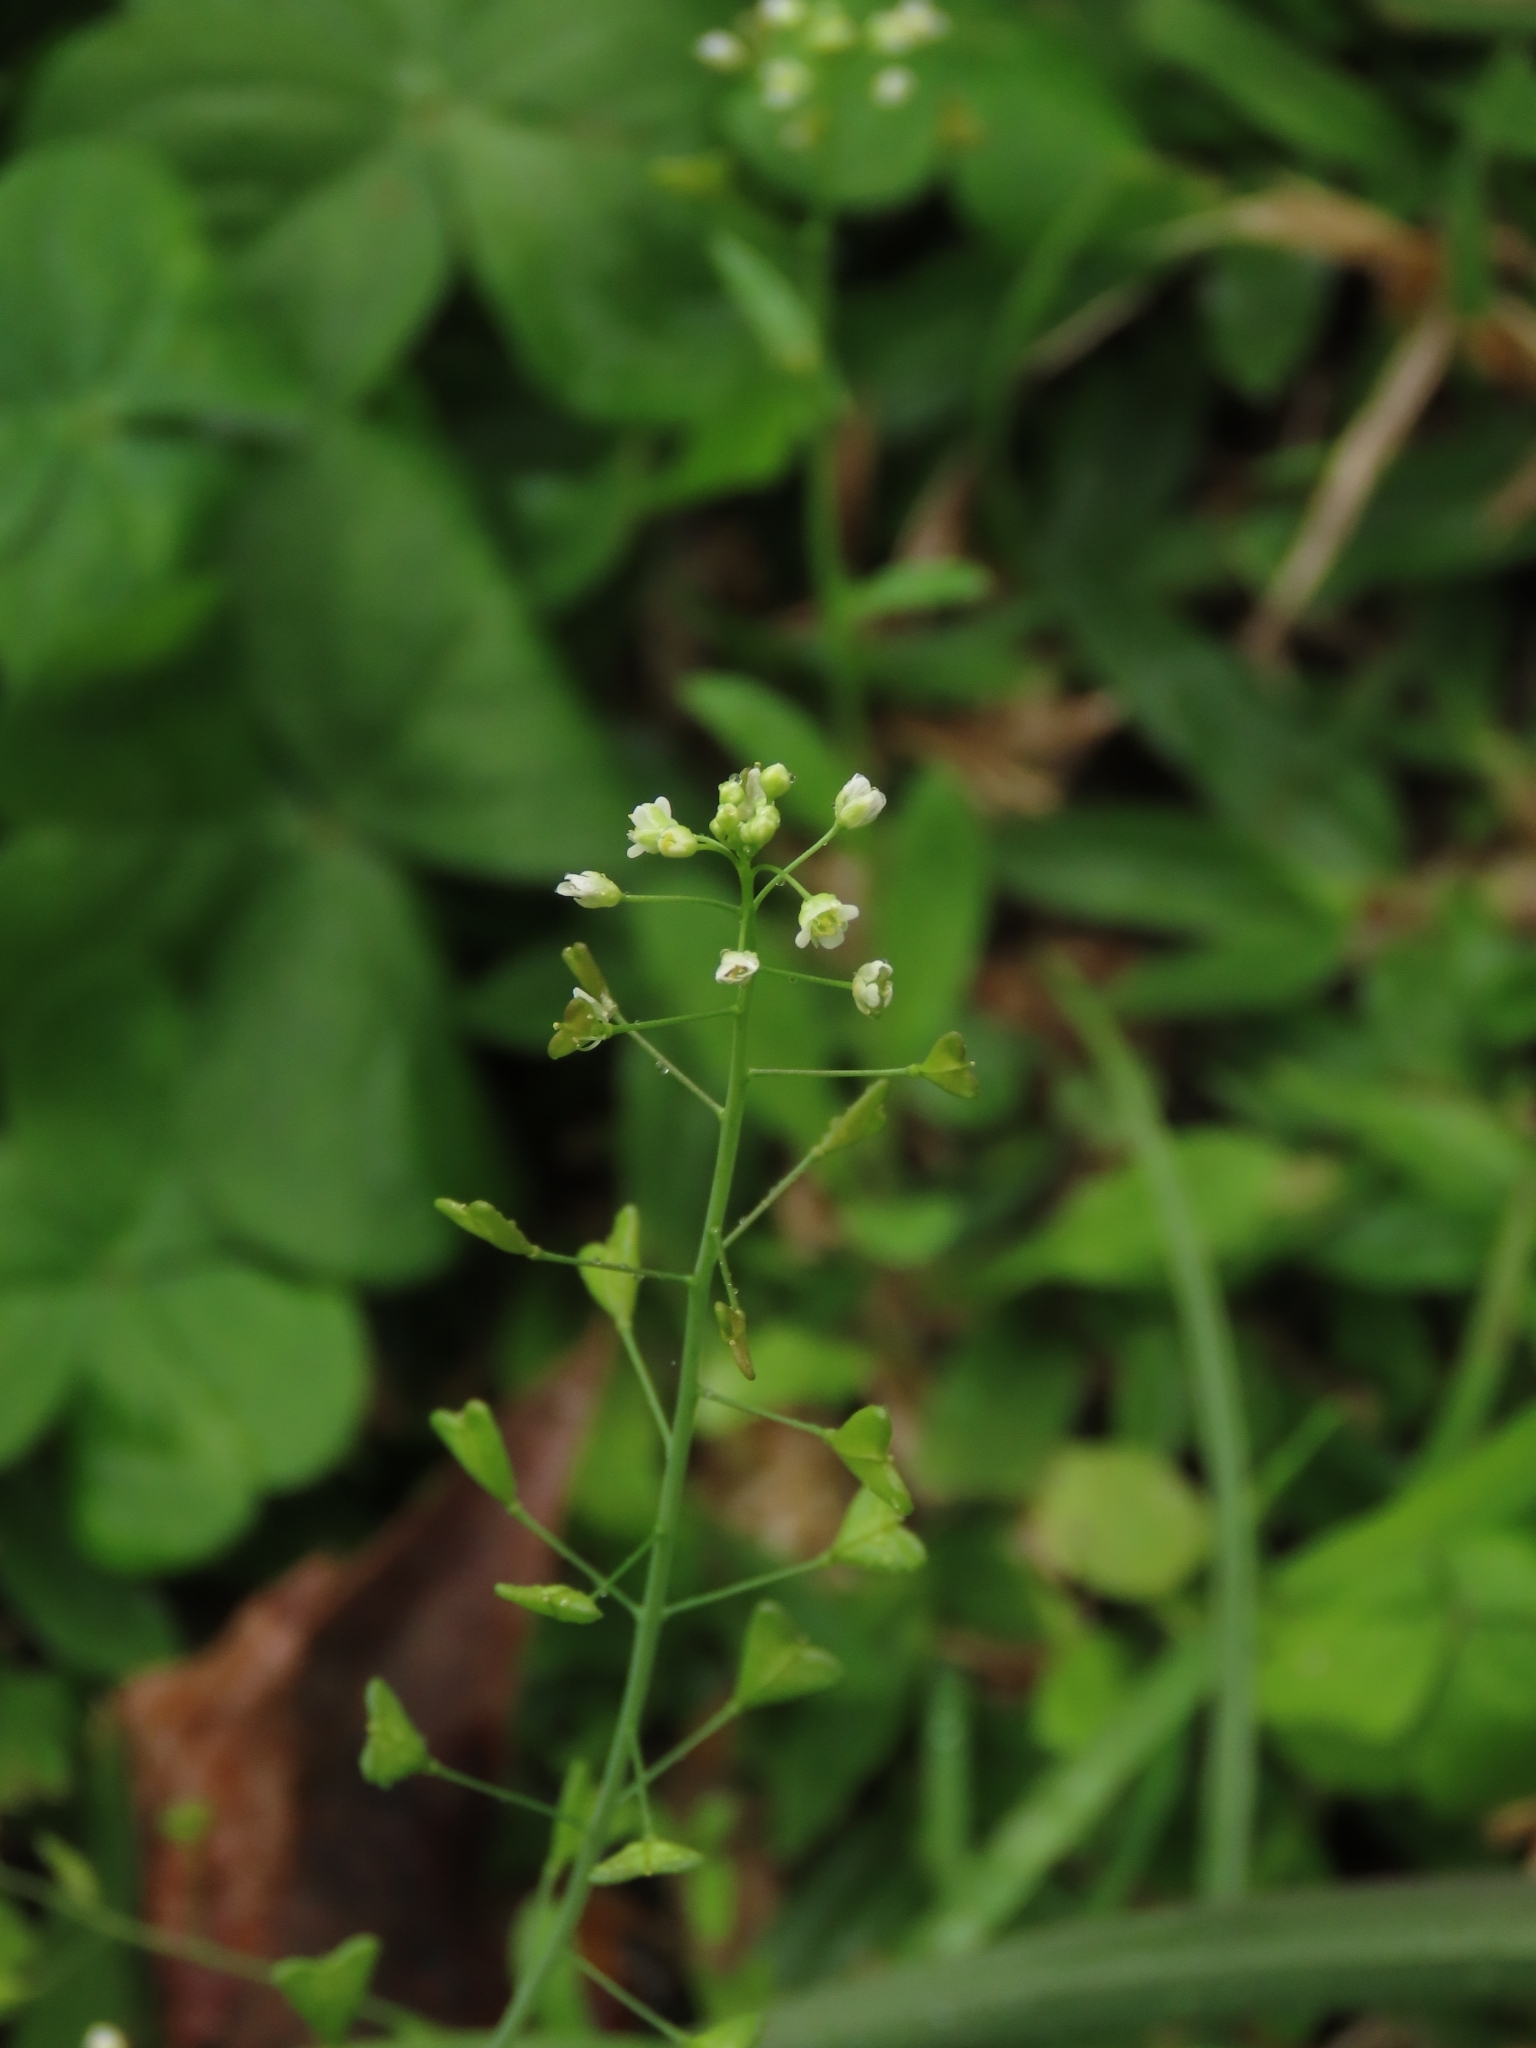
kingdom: Plantae
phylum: Tracheophyta
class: Magnoliopsida
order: Brassicales
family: Brassicaceae
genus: Capsella
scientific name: Capsella bursa-pastoris
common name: Shepherd's purse
